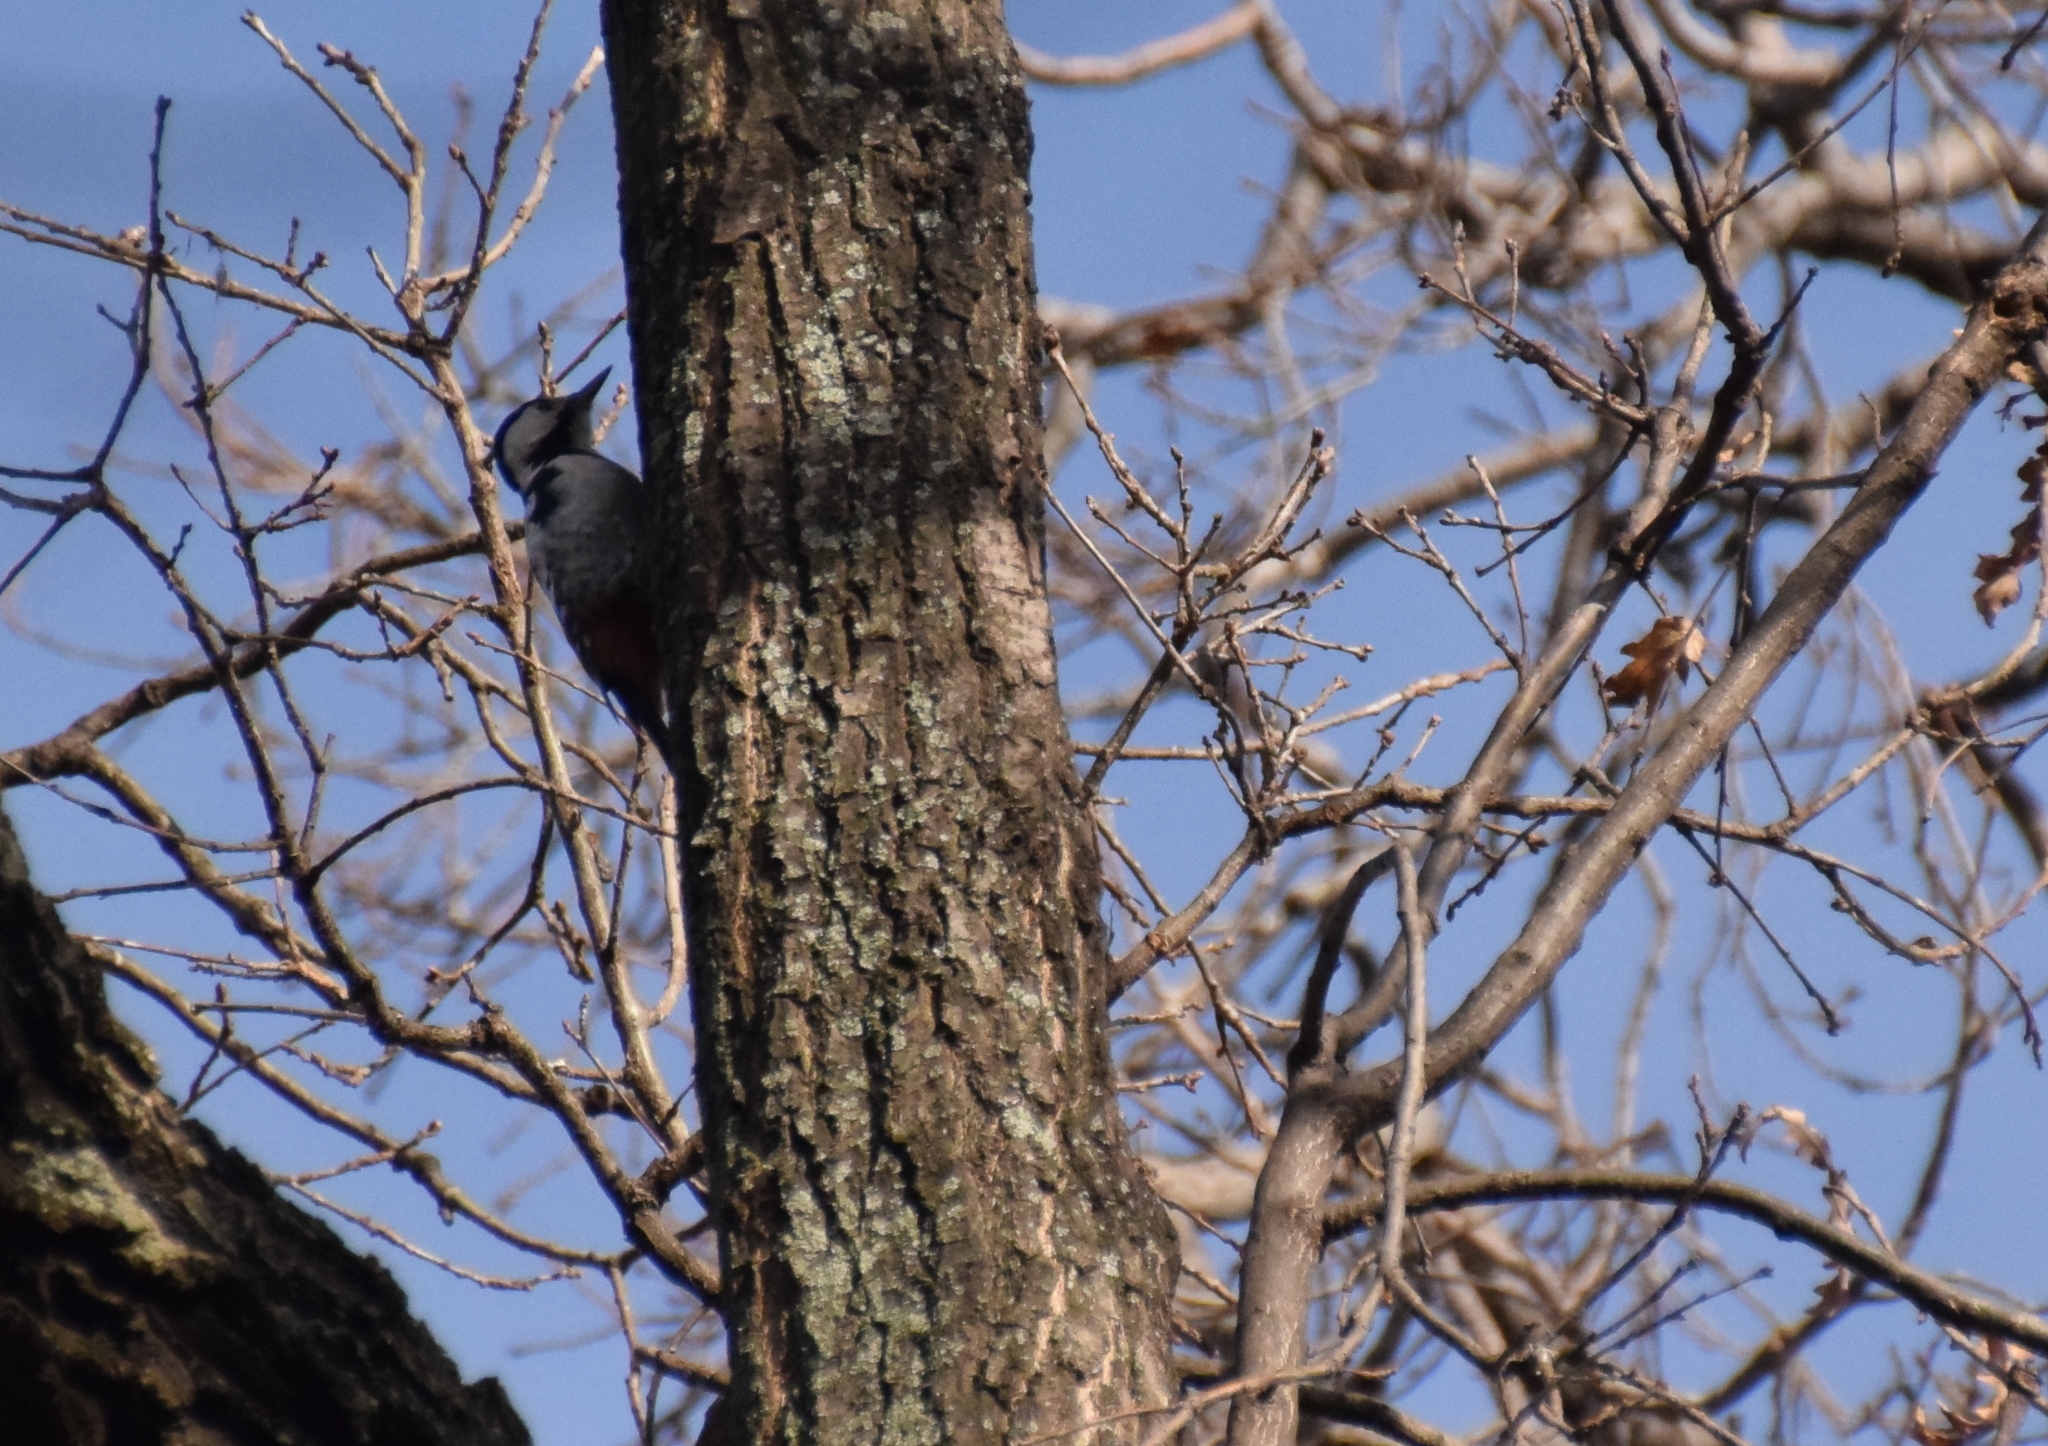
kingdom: Animalia
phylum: Chordata
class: Aves
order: Piciformes
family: Picidae
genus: Dendrocopos
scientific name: Dendrocopos syriacus
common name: Syrian woodpecker
